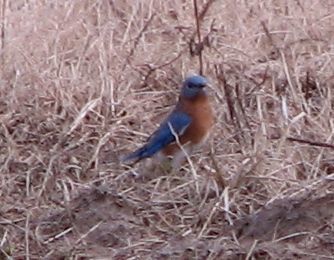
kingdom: Animalia
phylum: Chordata
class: Aves
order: Passeriformes
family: Turdidae
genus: Sialia
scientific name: Sialia sialis
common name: Eastern bluebird
